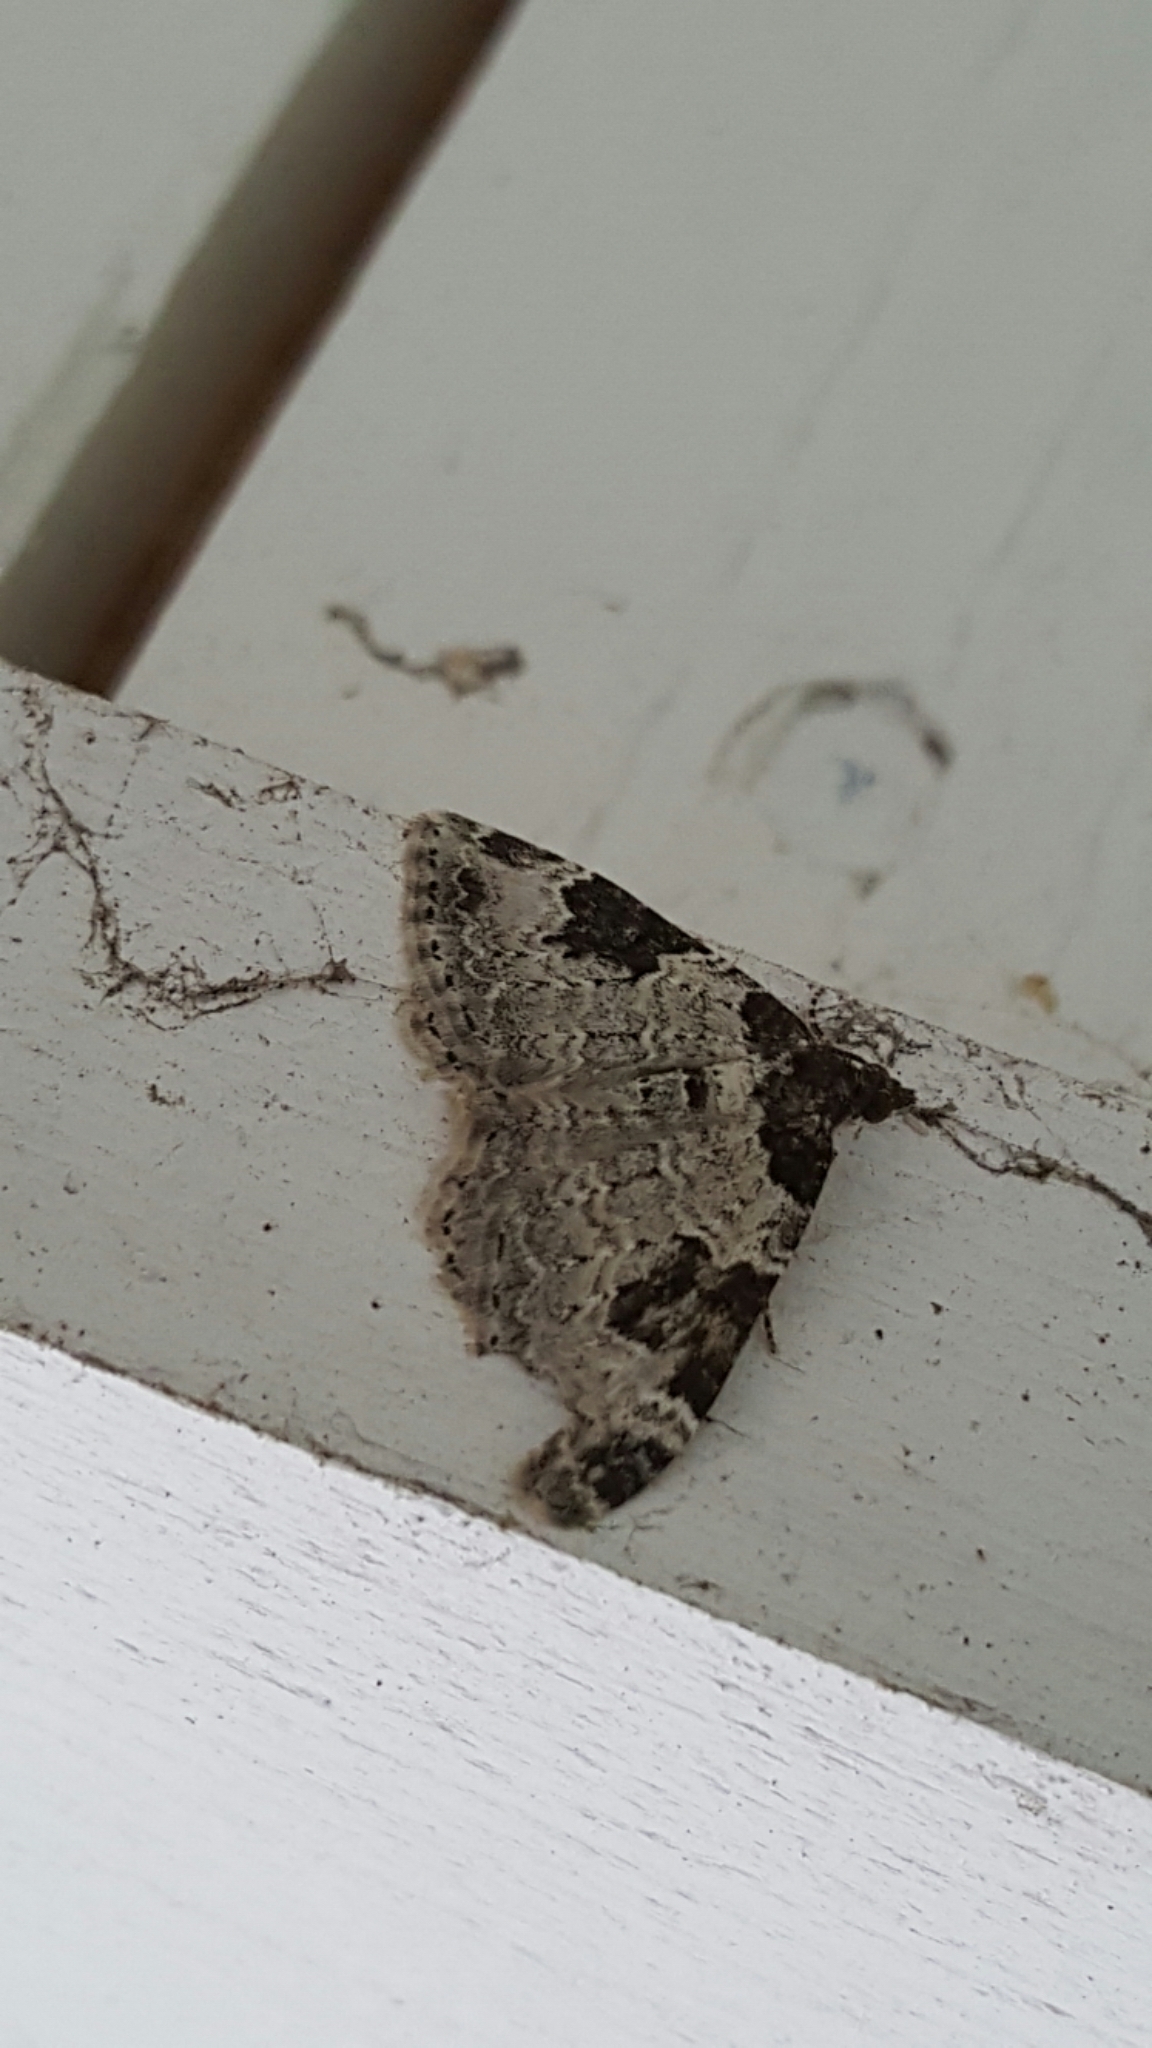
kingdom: Animalia
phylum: Arthropoda
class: Insecta
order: Lepidoptera
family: Geometridae
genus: Xanthorhoe
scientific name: Xanthorhoe fluctuata
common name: Garden carpet
